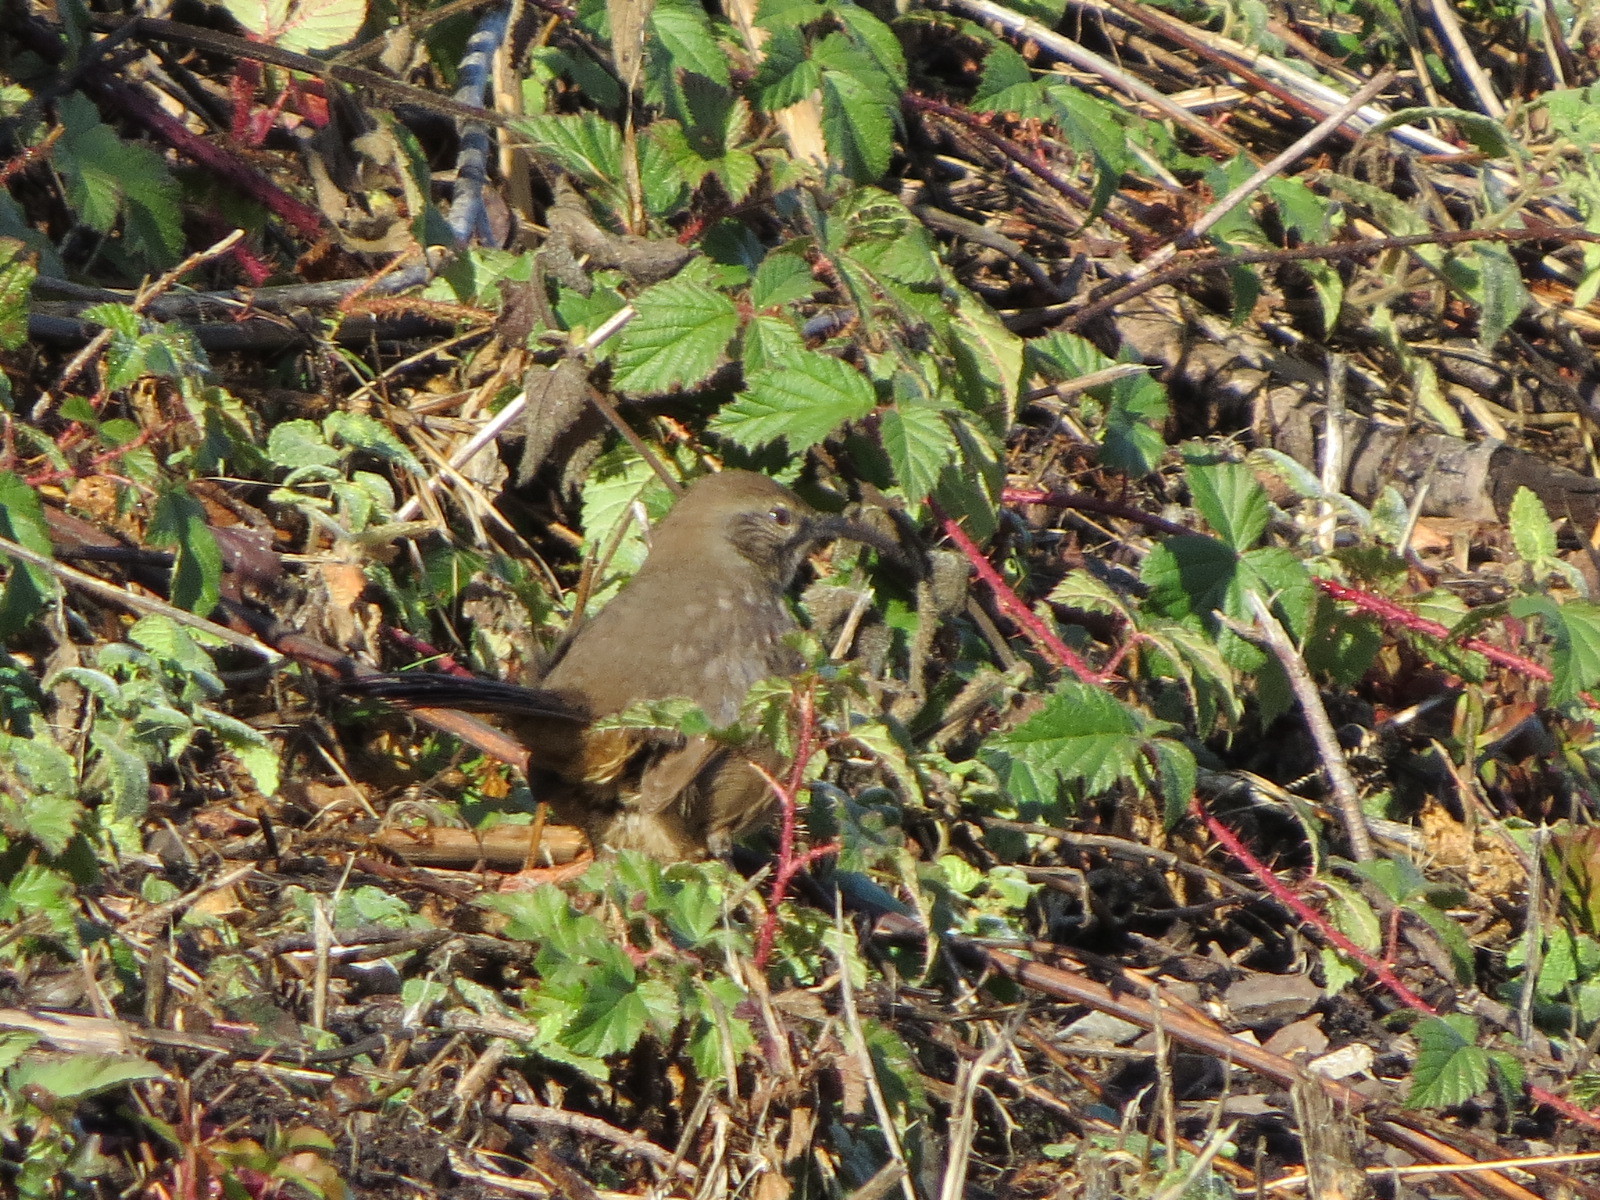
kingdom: Animalia
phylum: Chordata
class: Aves
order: Passeriformes
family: Mimidae
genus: Toxostoma
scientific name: Toxostoma redivivum
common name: California thrasher
